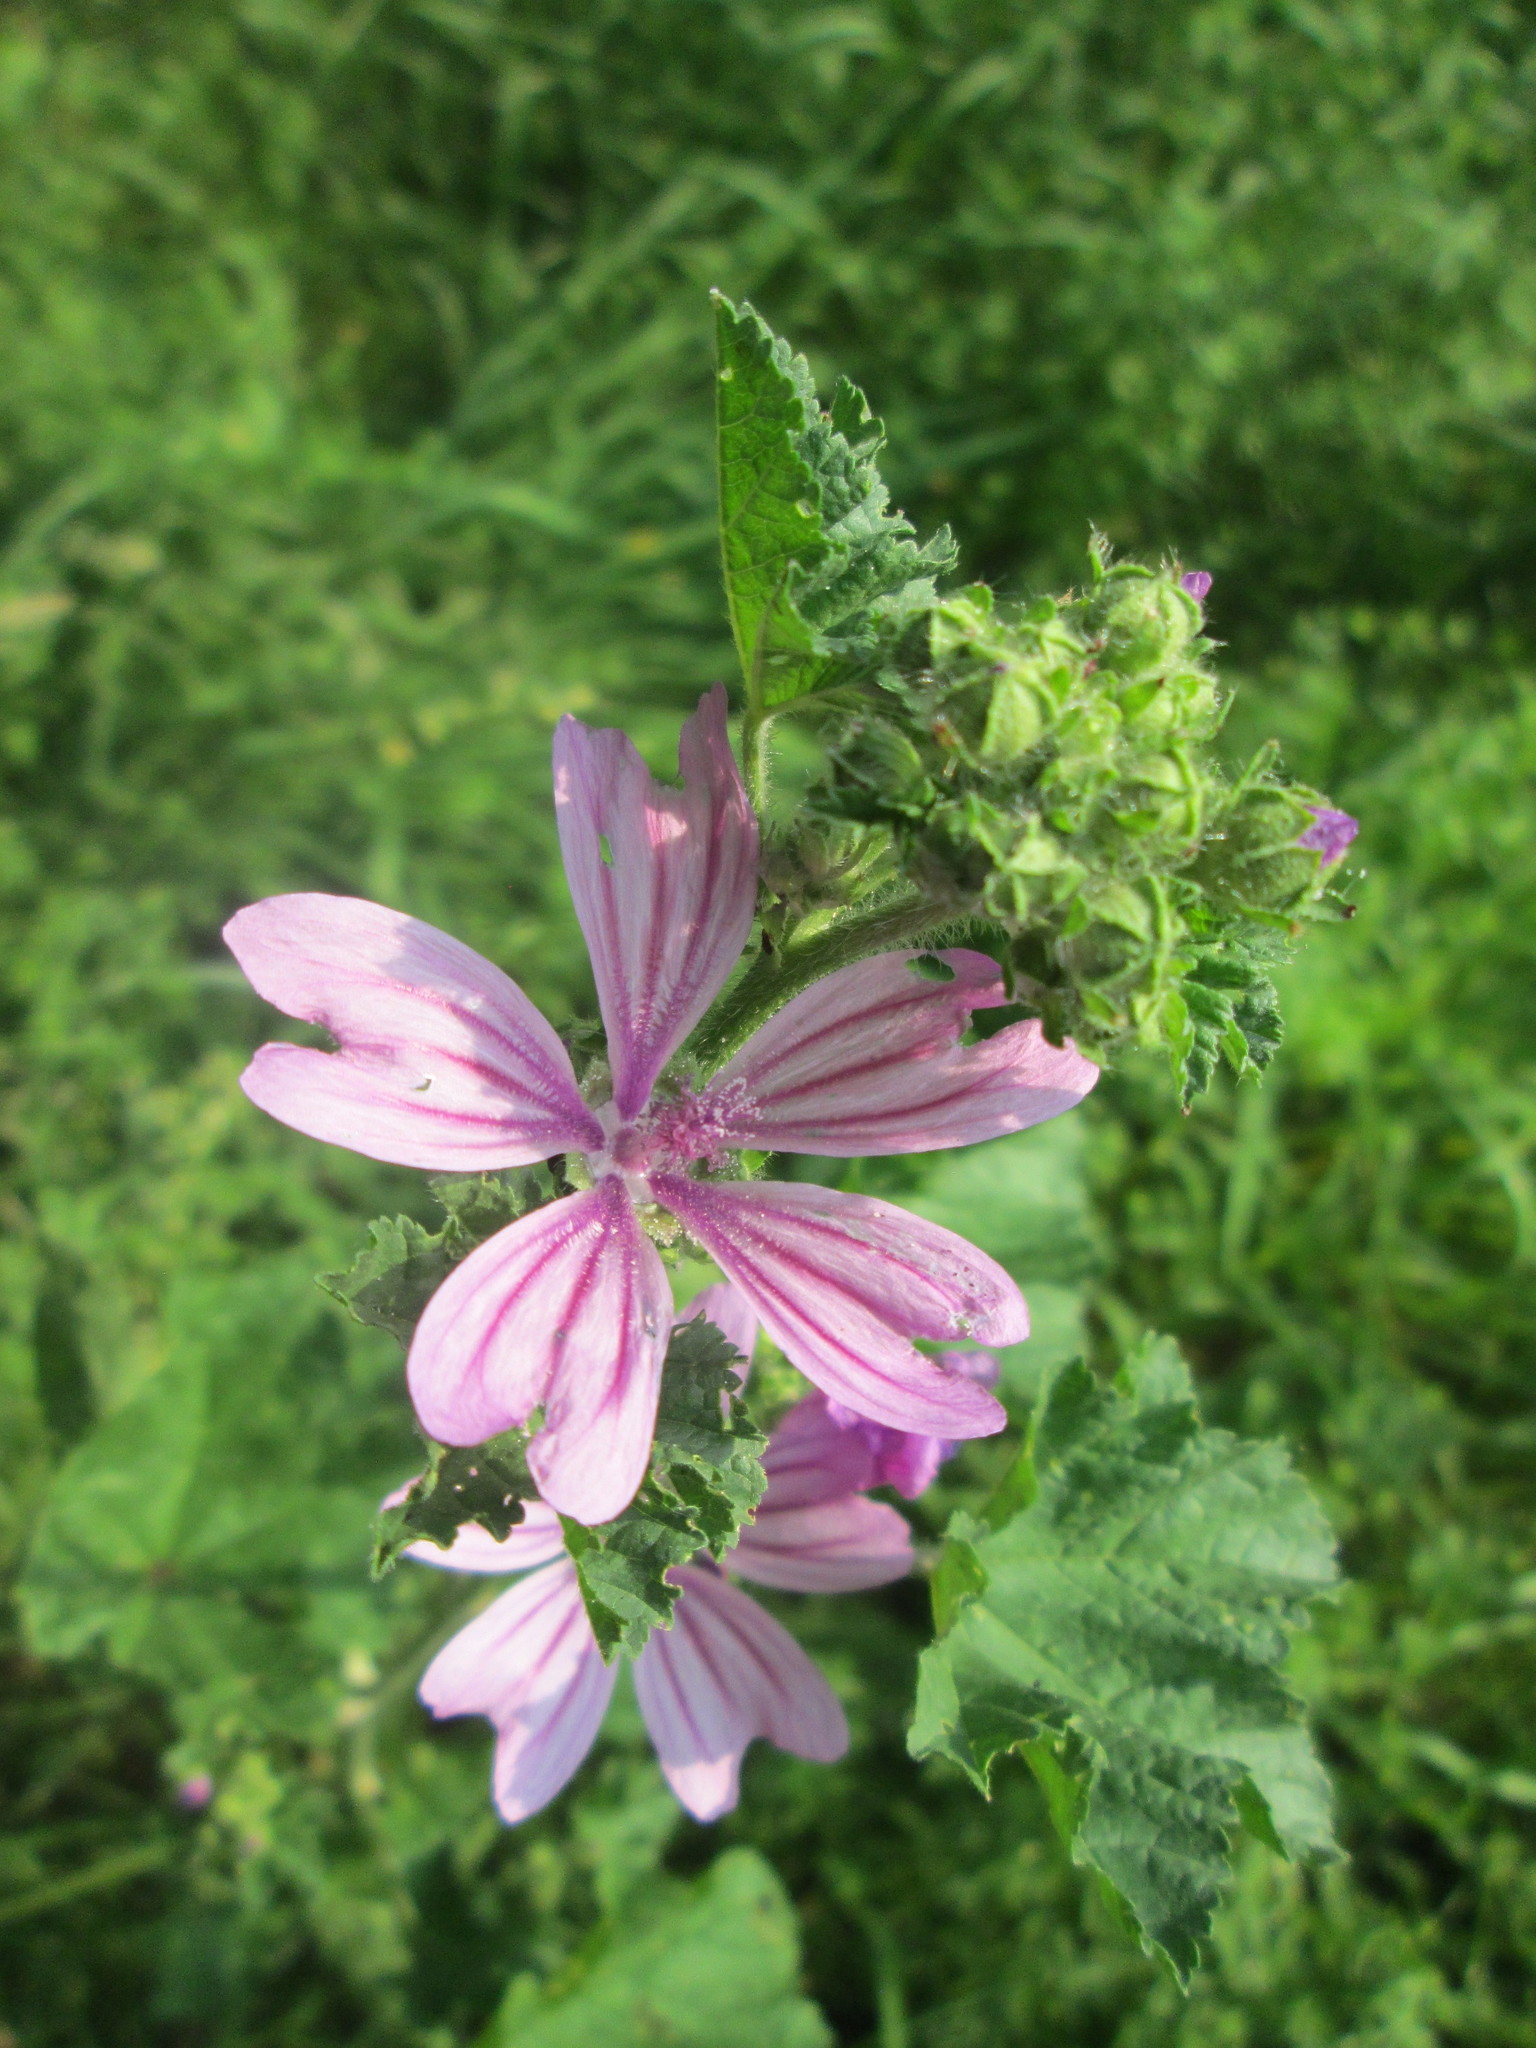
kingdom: Plantae
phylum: Tracheophyta
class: Magnoliopsida
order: Malvales
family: Malvaceae
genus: Malva
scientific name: Malva sylvestris
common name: Common mallow
